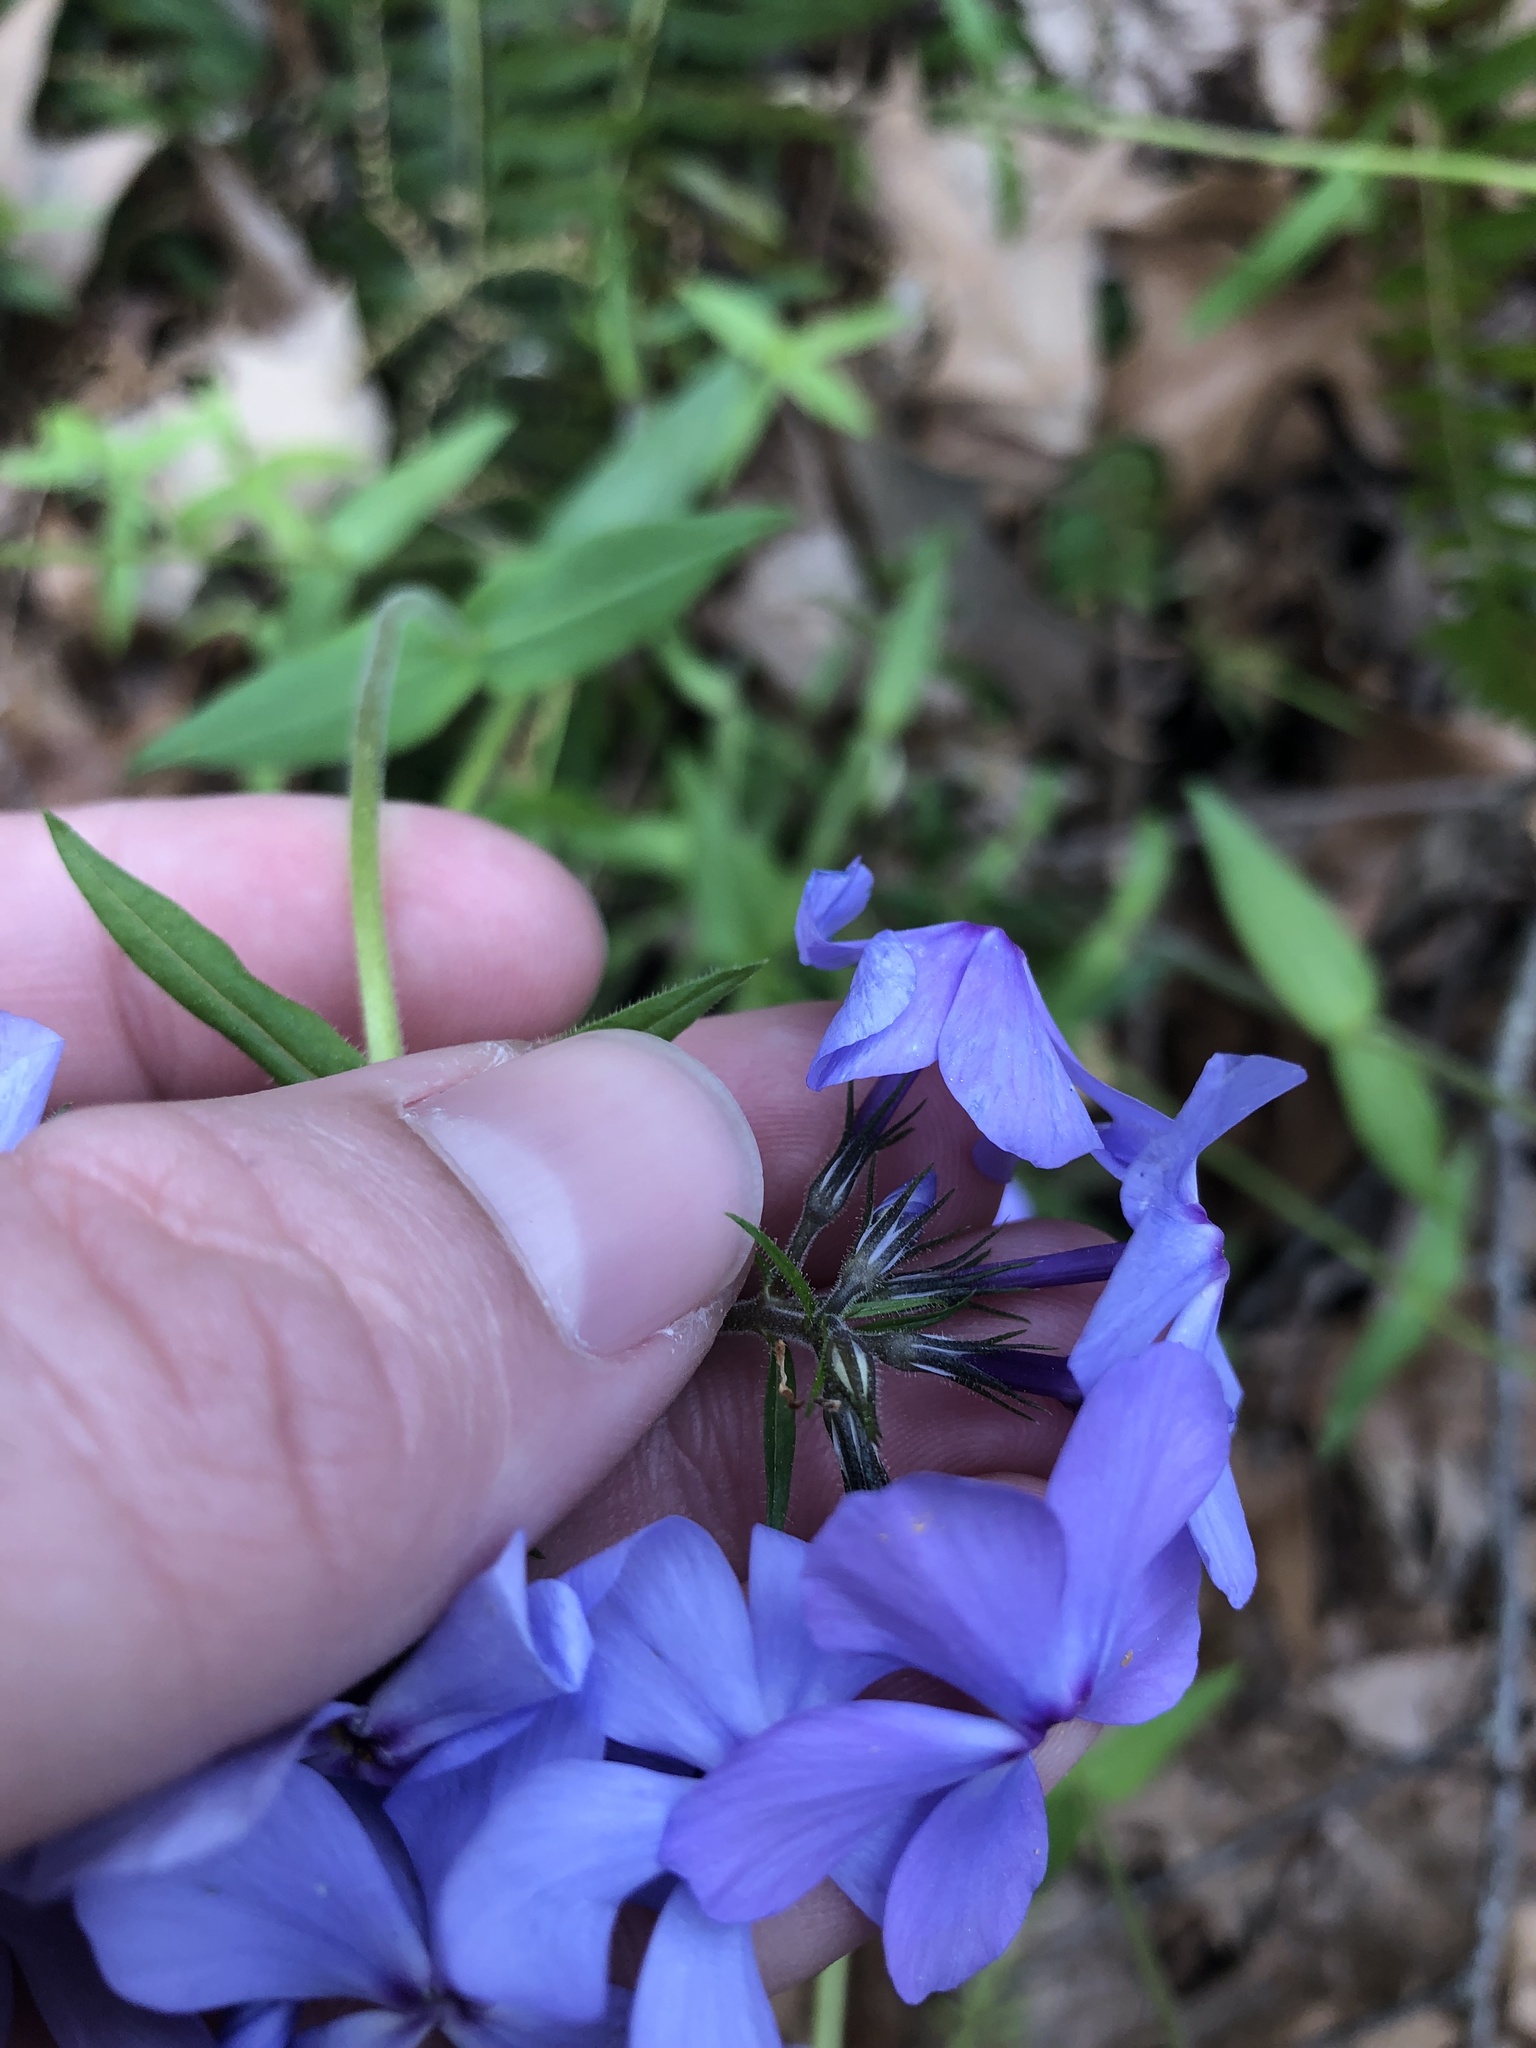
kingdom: Plantae
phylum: Tracheophyta
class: Magnoliopsida
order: Ericales
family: Polemoniaceae
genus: Phlox
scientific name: Phlox divaricata
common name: Blue phlox
